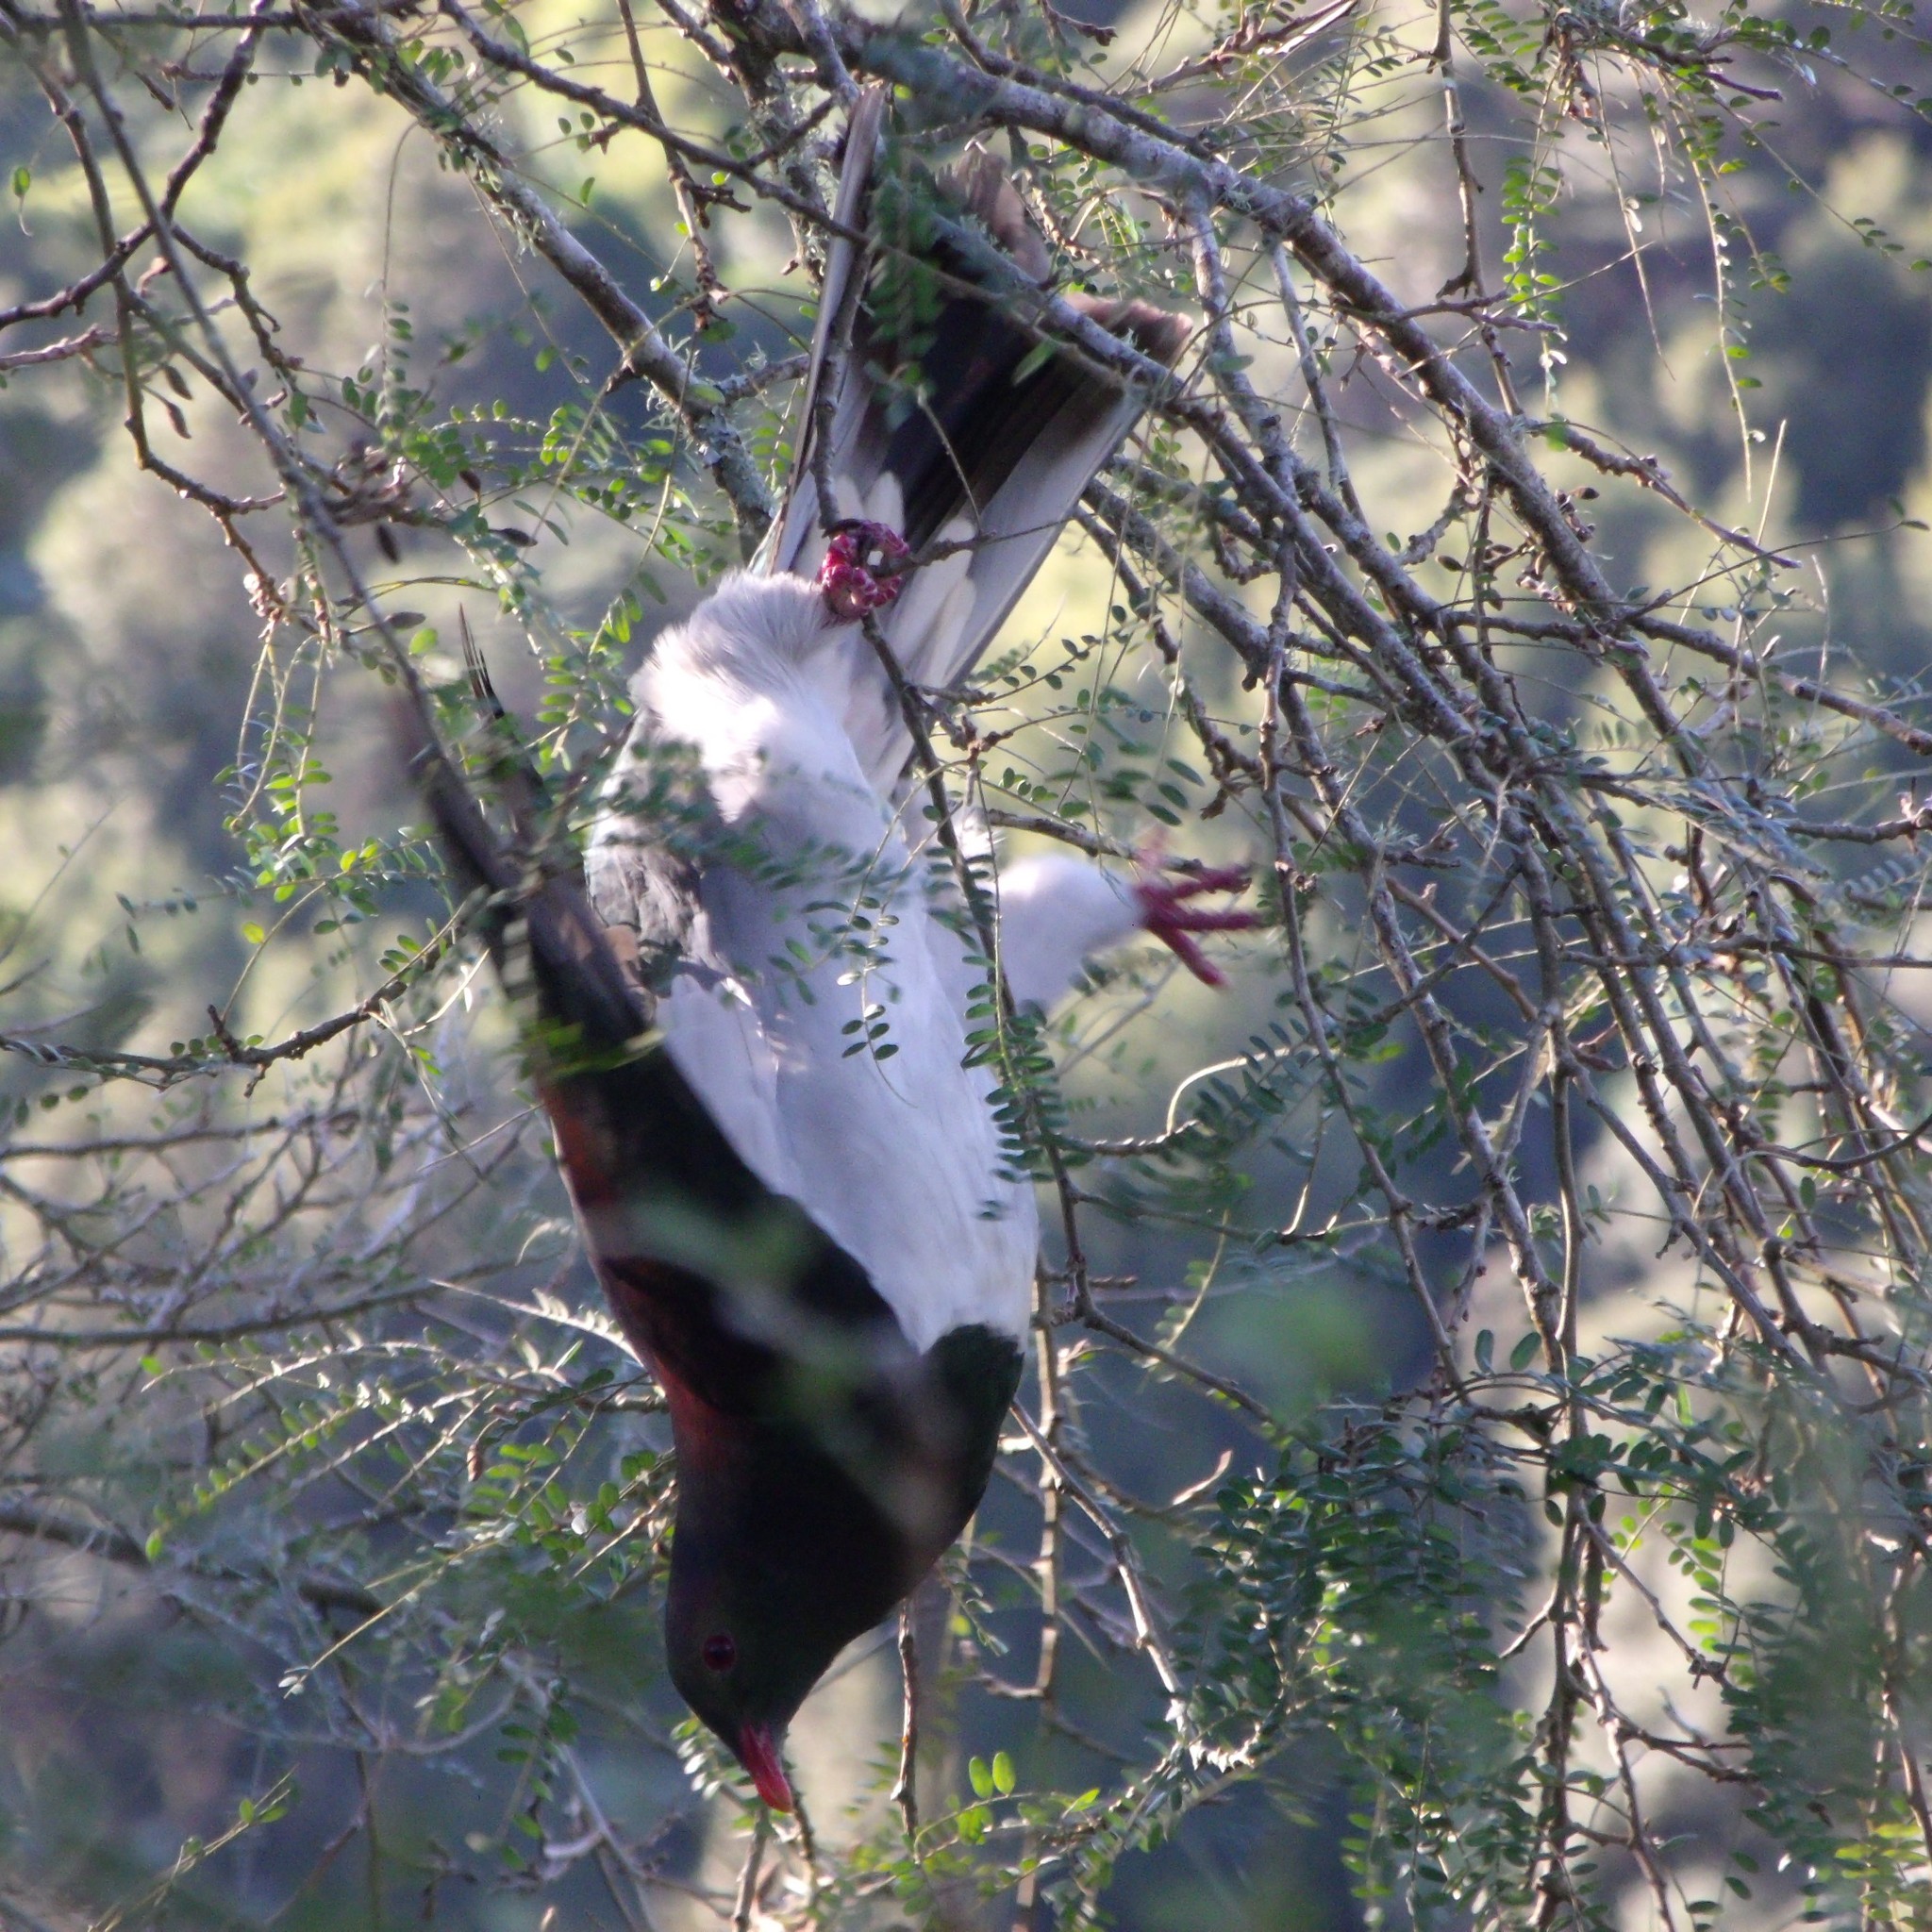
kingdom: Animalia
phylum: Chordata
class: Aves
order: Columbiformes
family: Columbidae
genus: Hemiphaga
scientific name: Hemiphaga novaeseelandiae
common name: New zealand pigeon
